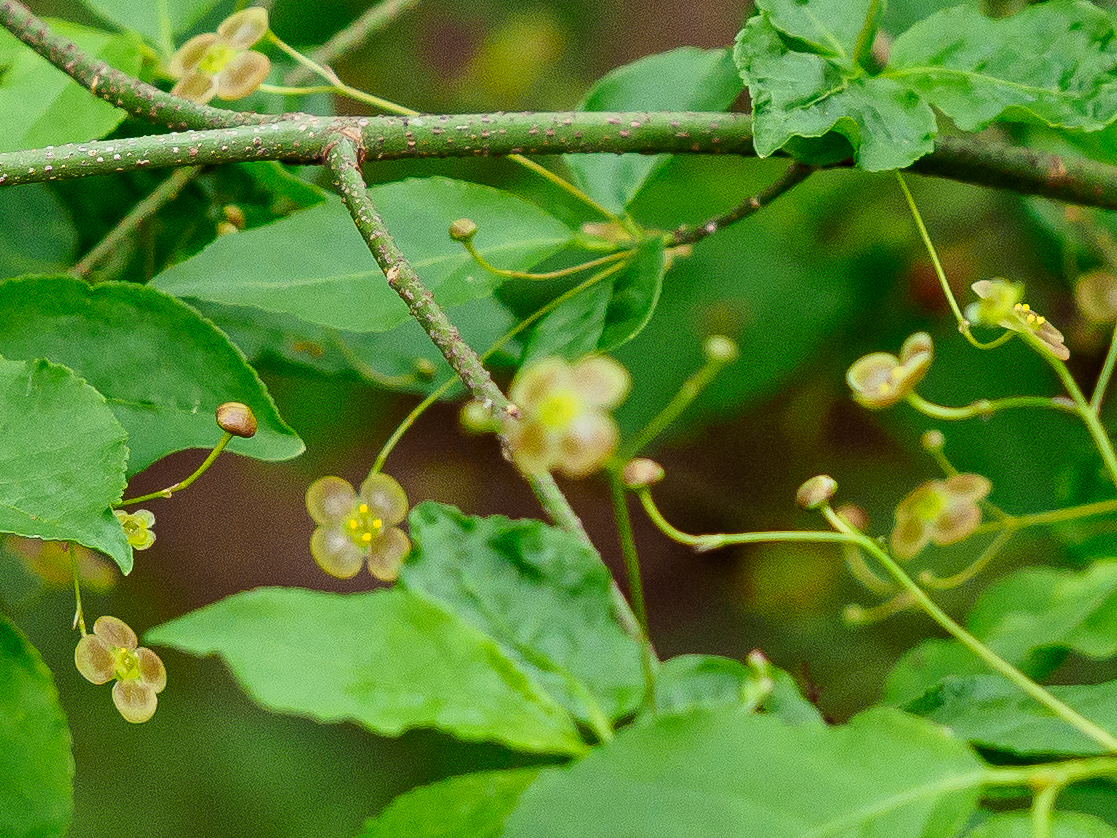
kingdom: Plantae
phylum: Tracheophyta
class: Magnoliopsida
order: Celastrales
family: Celastraceae
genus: Euonymus
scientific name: Euonymus verrucosus
